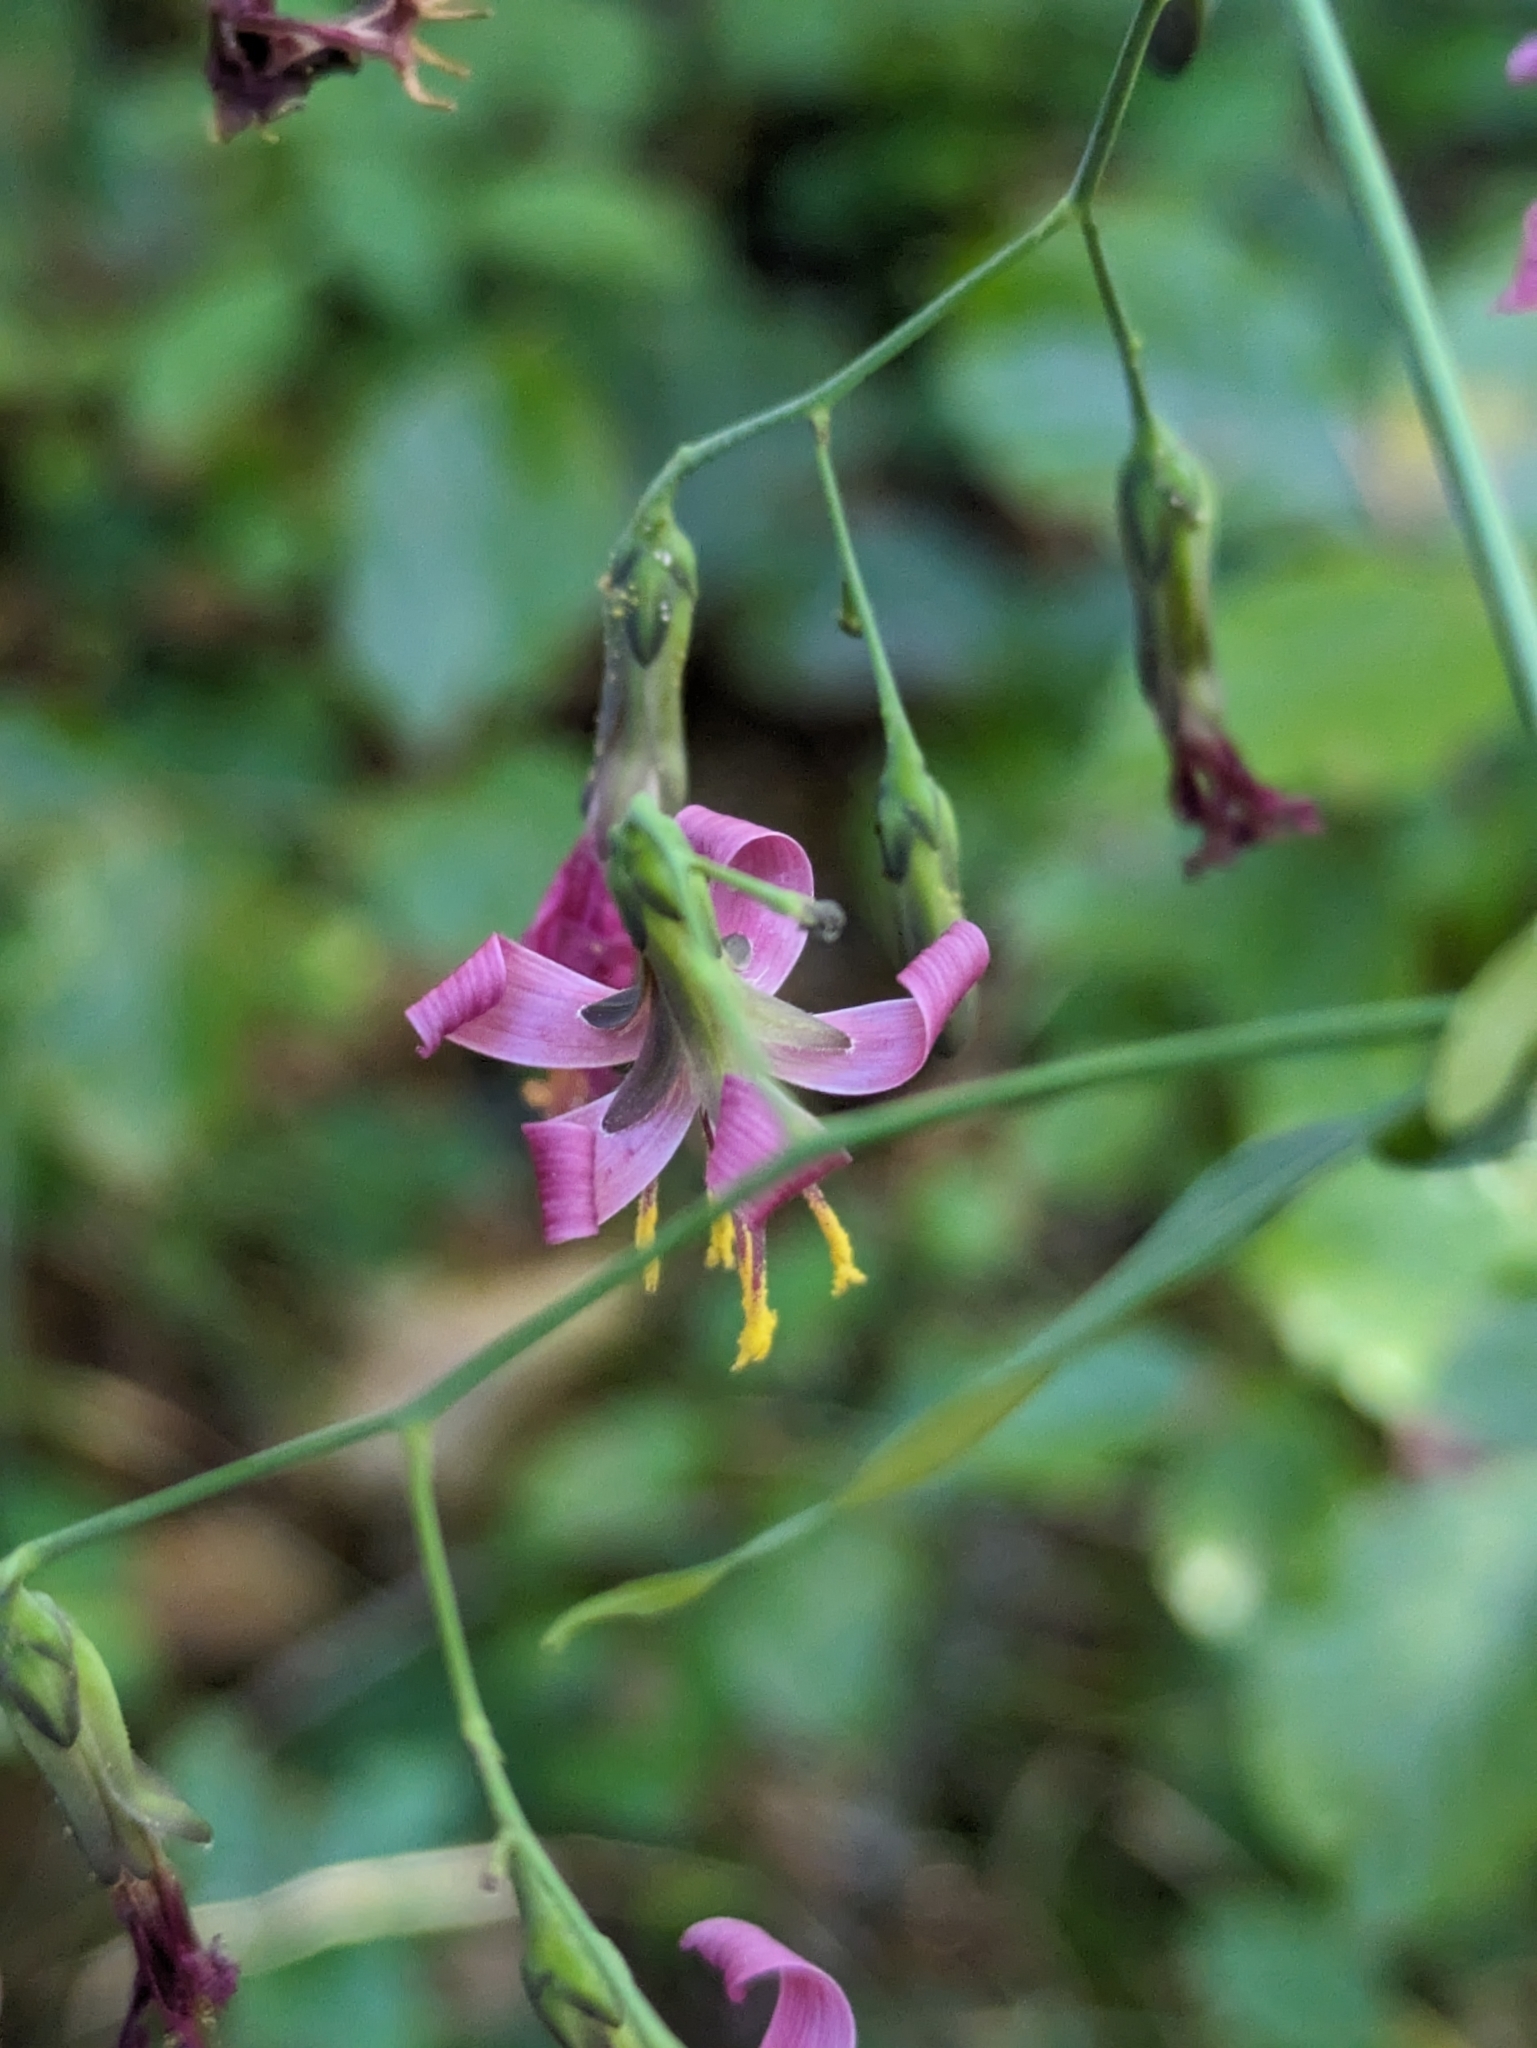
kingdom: Plantae
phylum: Tracheophyta
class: Magnoliopsida
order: Asterales
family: Asteraceae
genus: Prenanthes
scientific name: Prenanthes purpurea
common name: Purple lettuce
